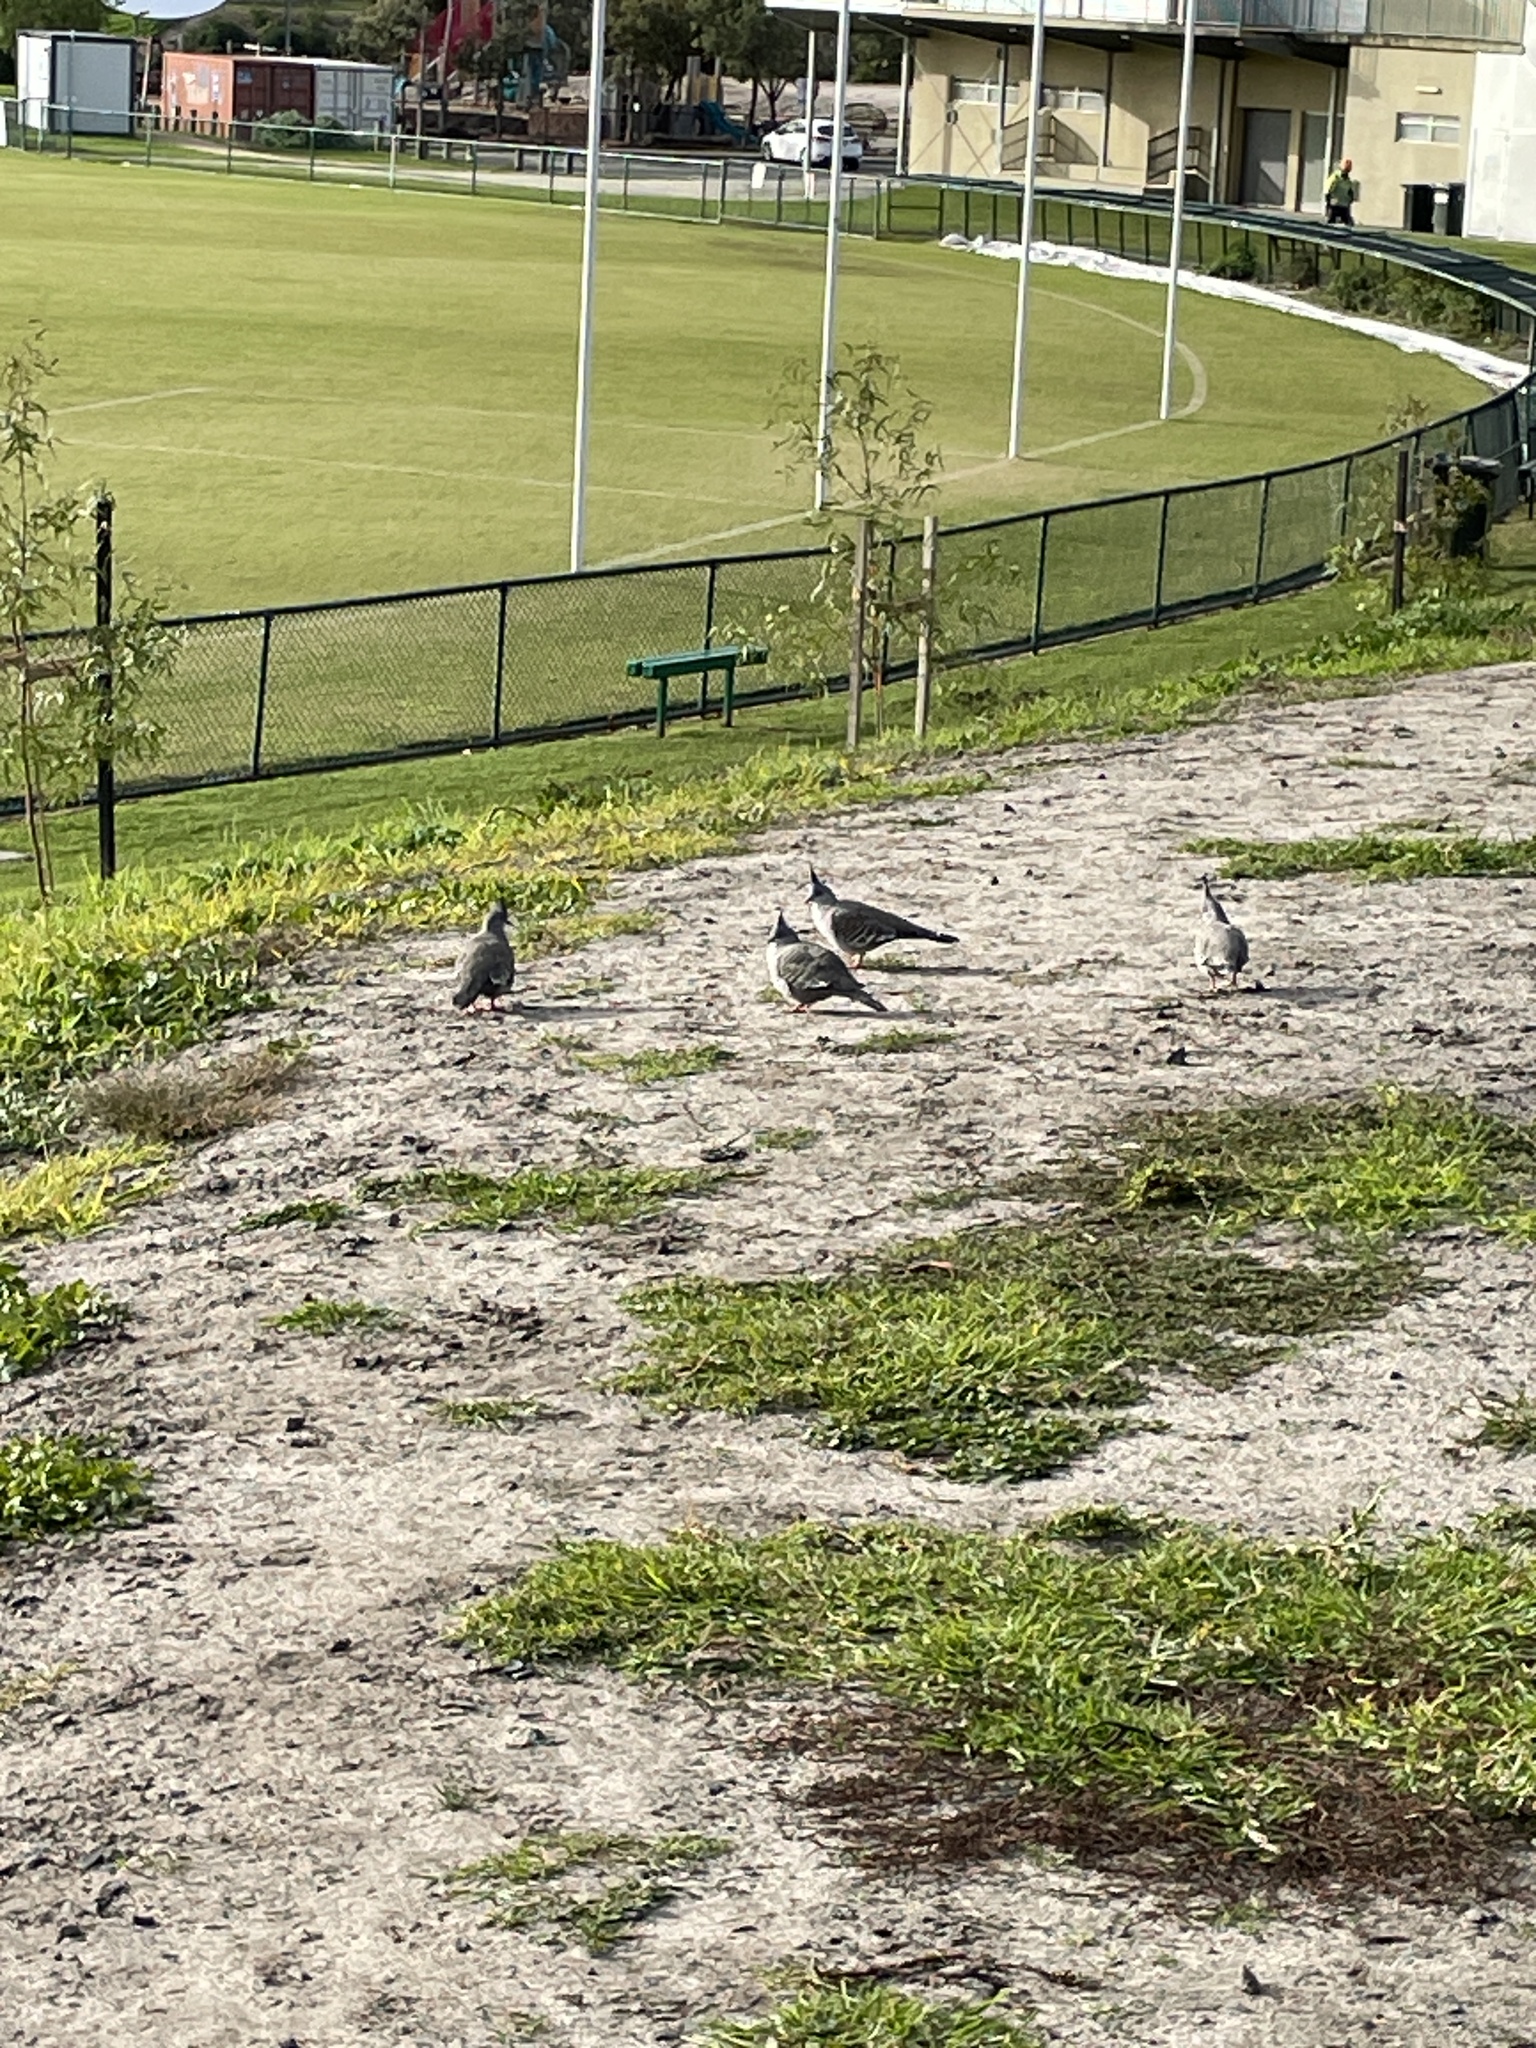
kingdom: Animalia
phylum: Chordata
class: Aves
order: Columbiformes
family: Columbidae
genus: Ocyphaps
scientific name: Ocyphaps lophotes
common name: Crested pigeon
